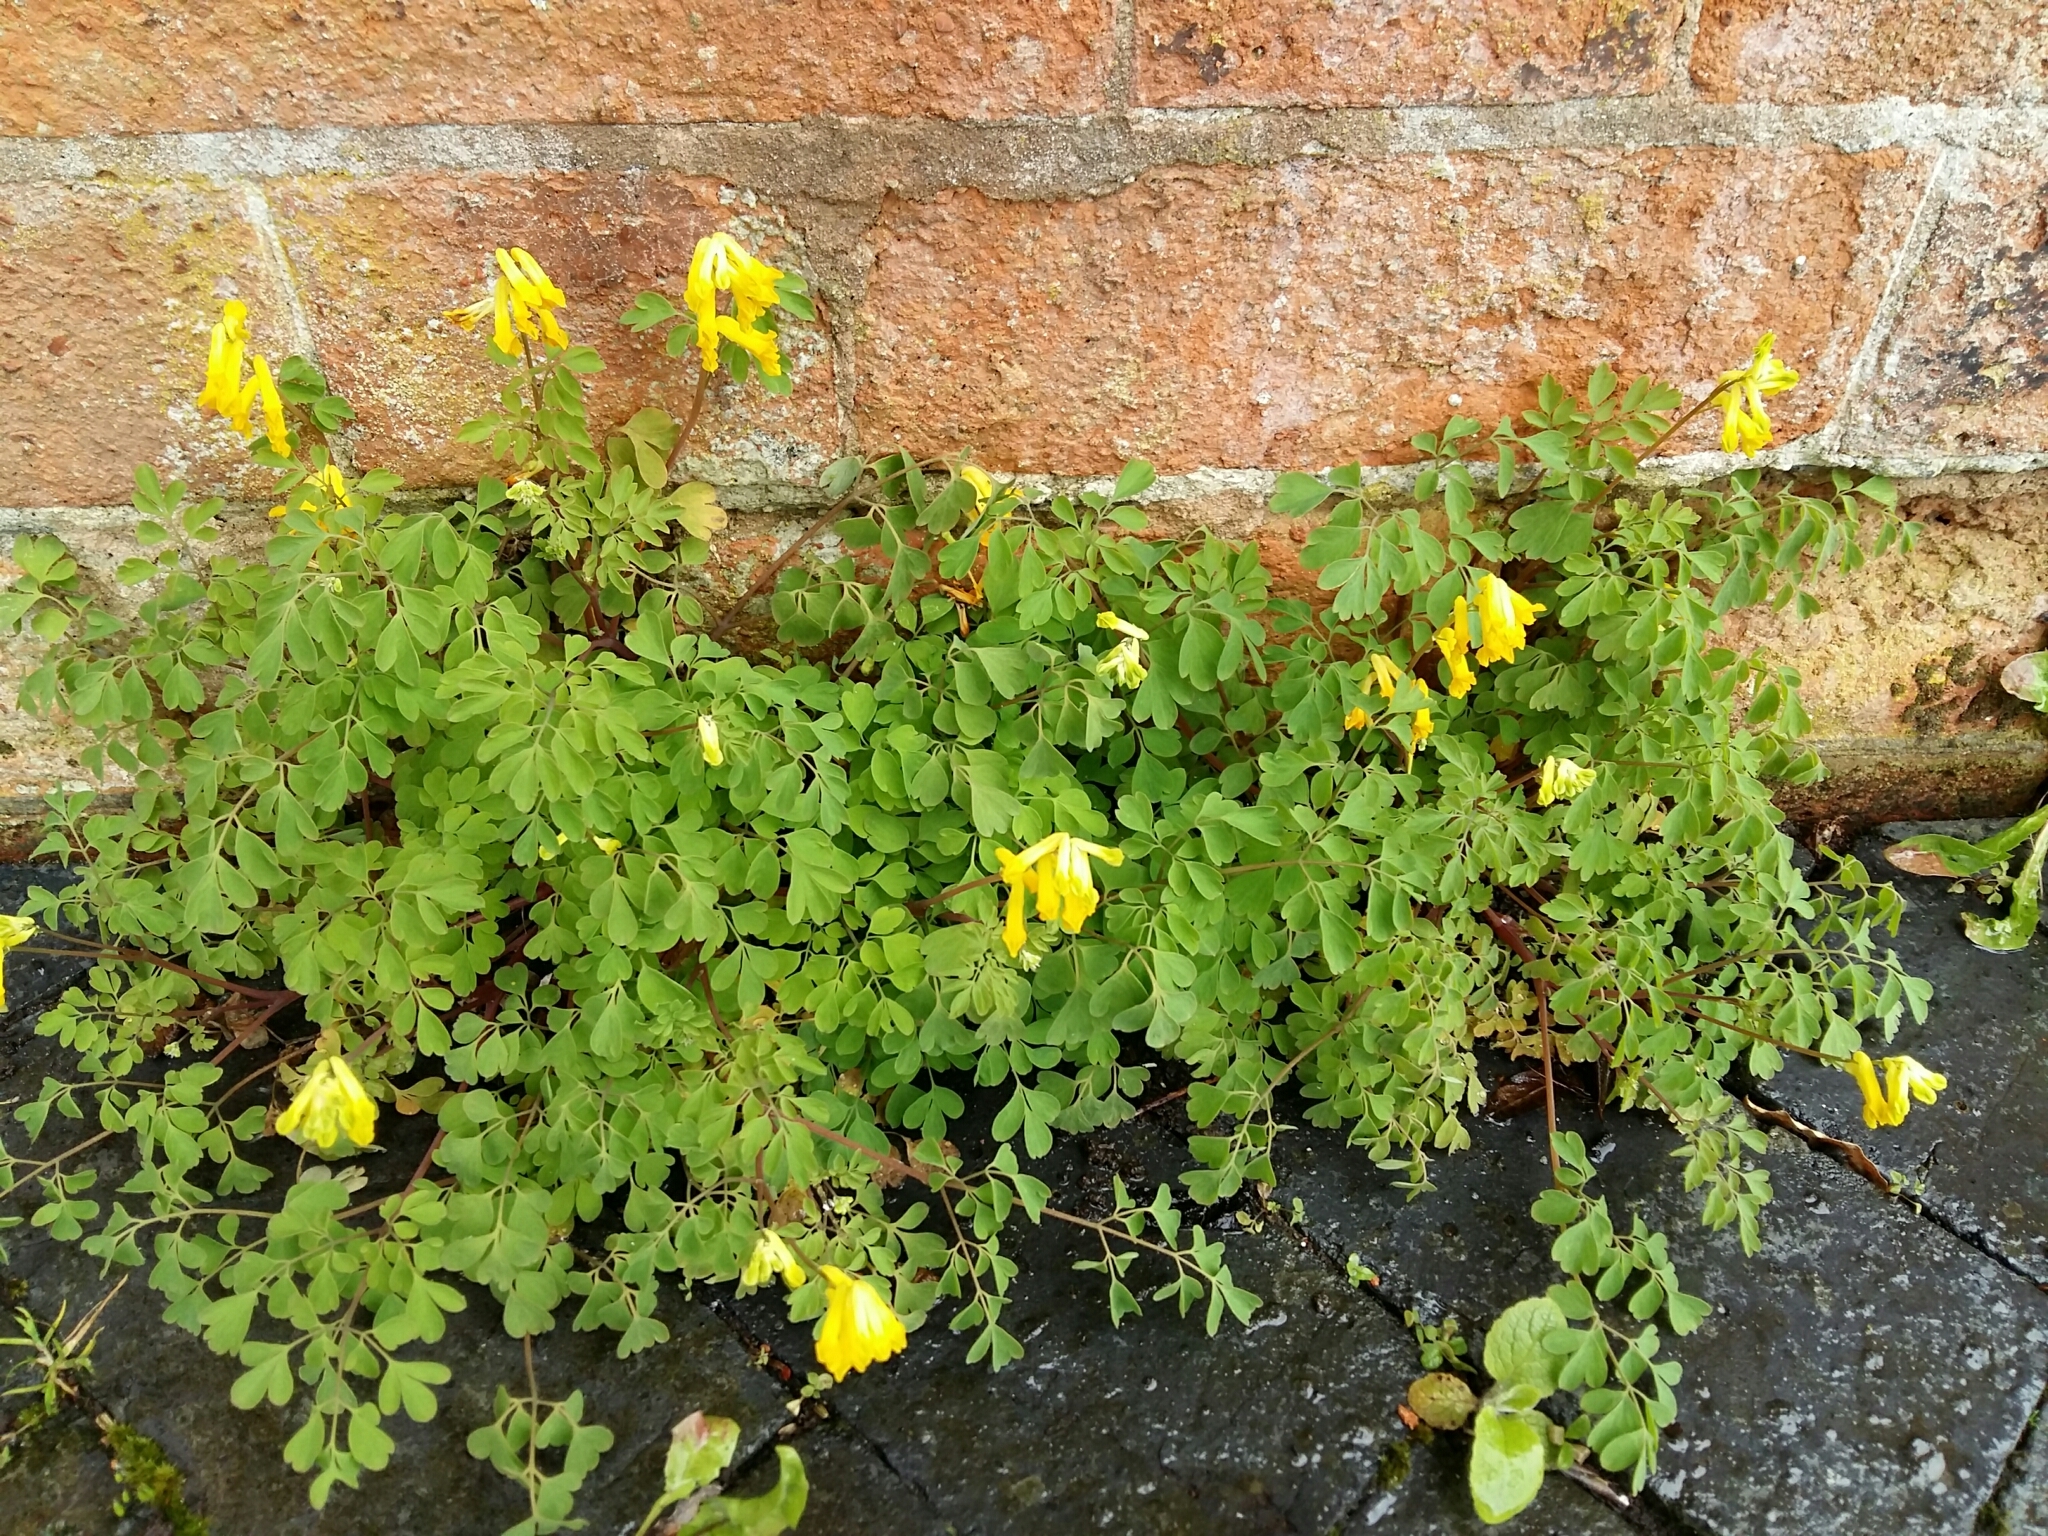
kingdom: Plantae
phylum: Tracheophyta
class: Magnoliopsida
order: Ranunculales
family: Papaveraceae
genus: Pseudofumaria
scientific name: Pseudofumaria lutea
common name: Yellow corydalis
